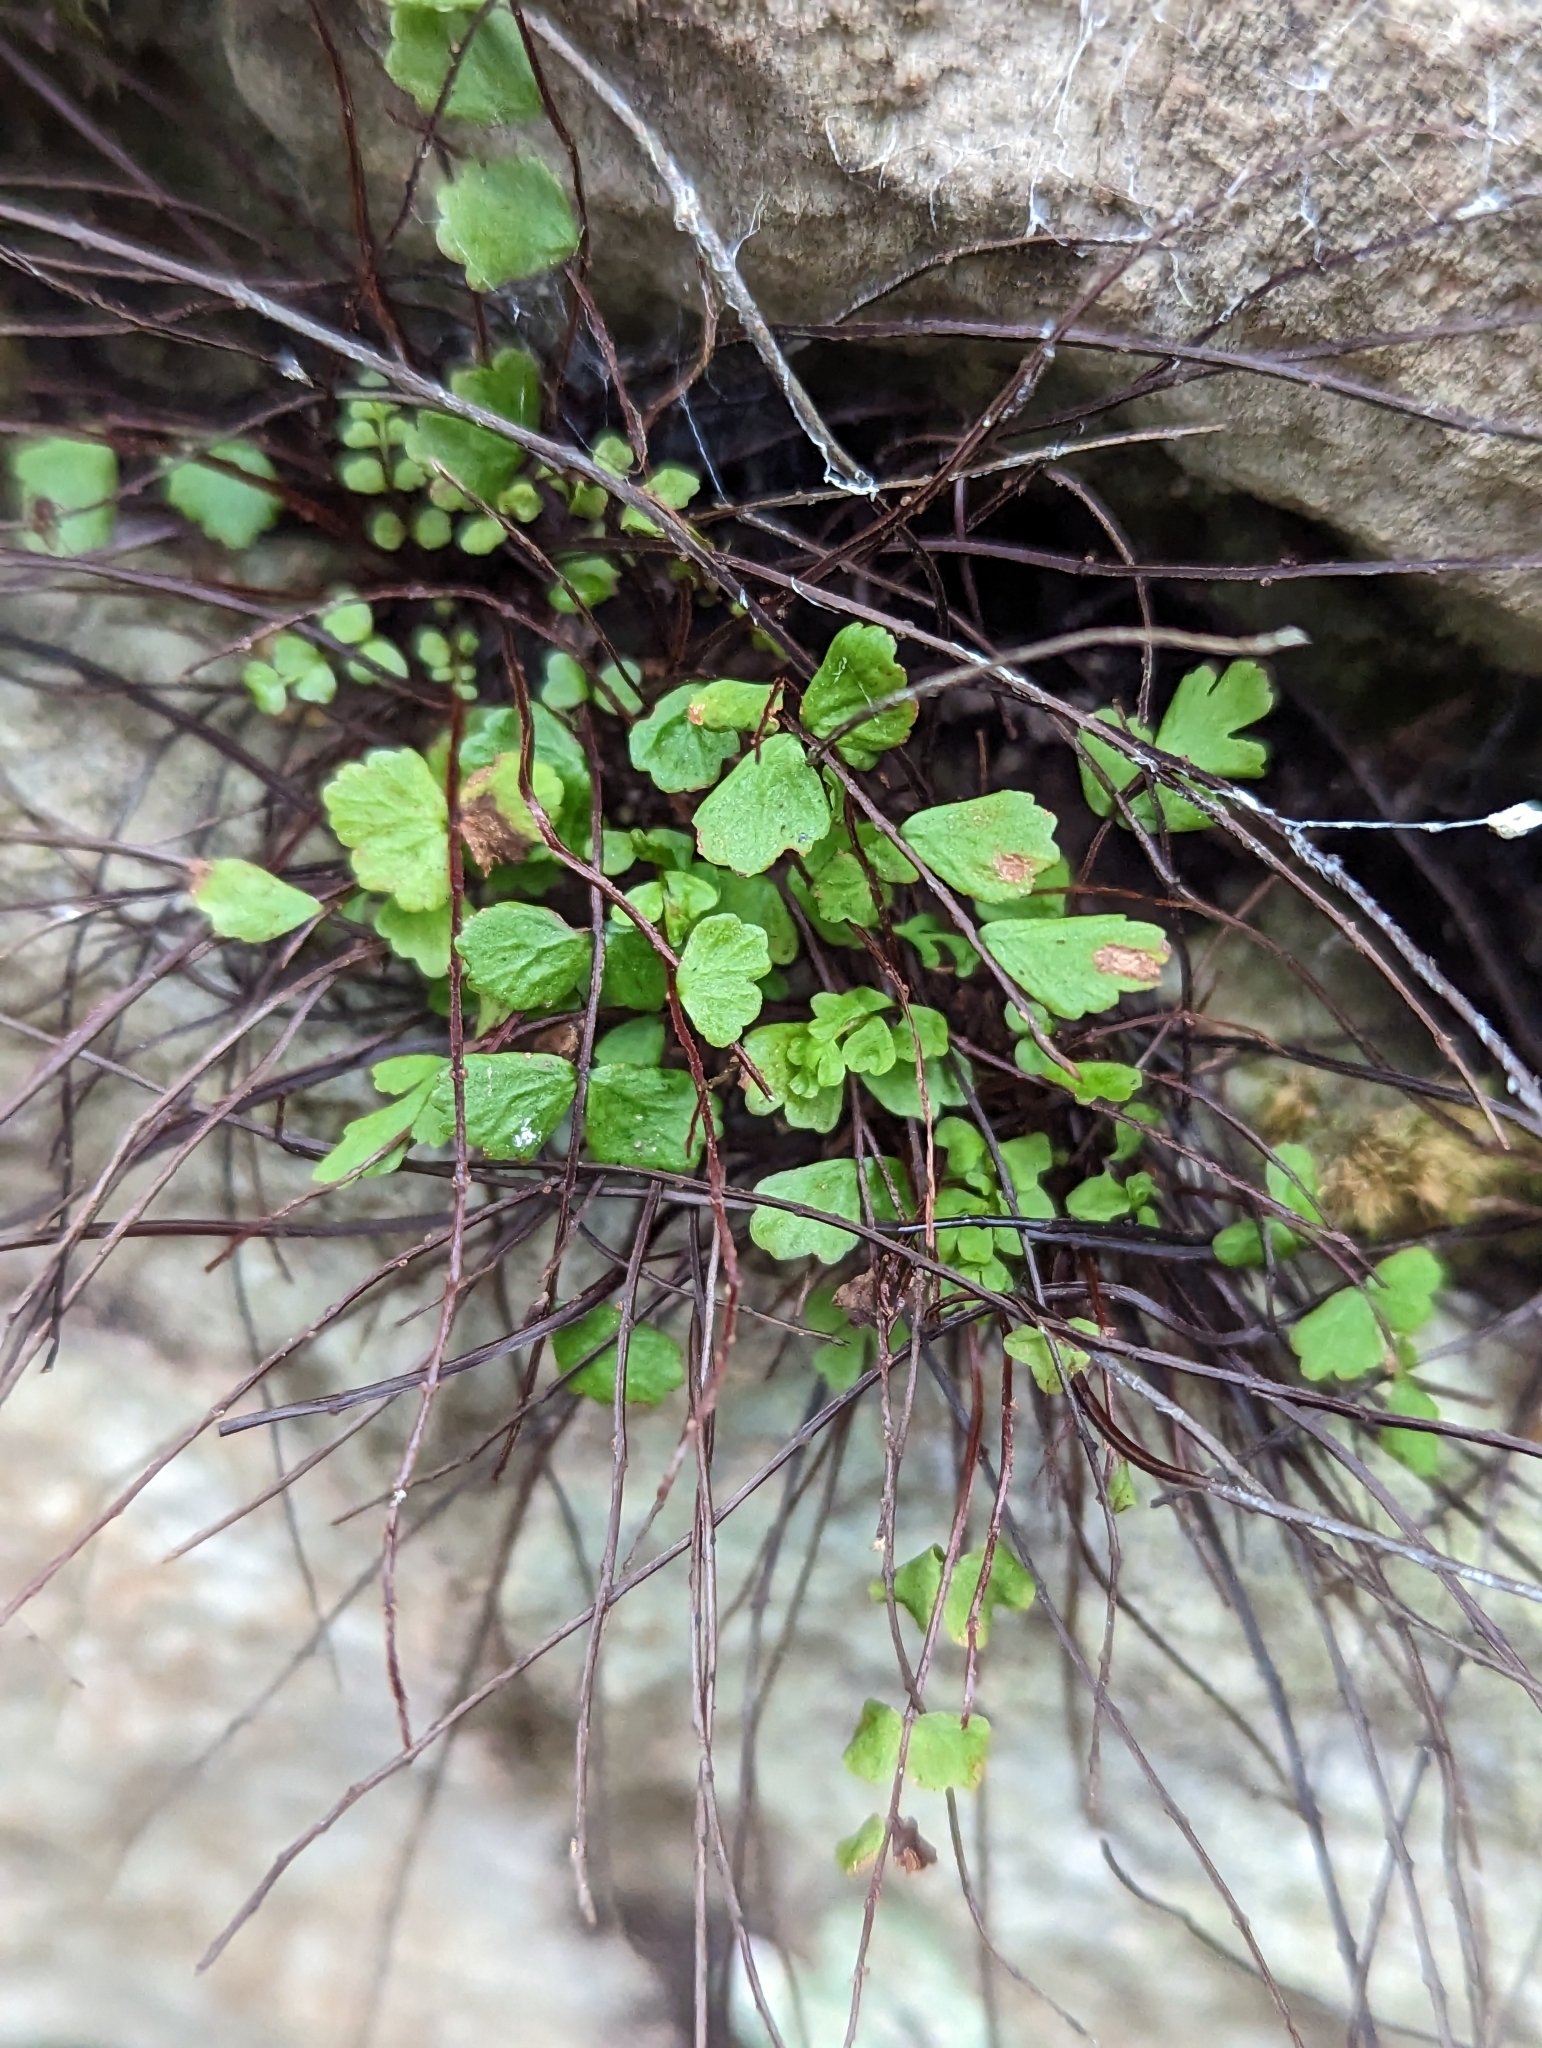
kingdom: Plantae
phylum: Tracheophyta
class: Polypodiopsida
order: Polypodiales
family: Aspleniaceae
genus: Asplenium
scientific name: Asplenium trichomanes
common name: Maidenhair spleenwort
